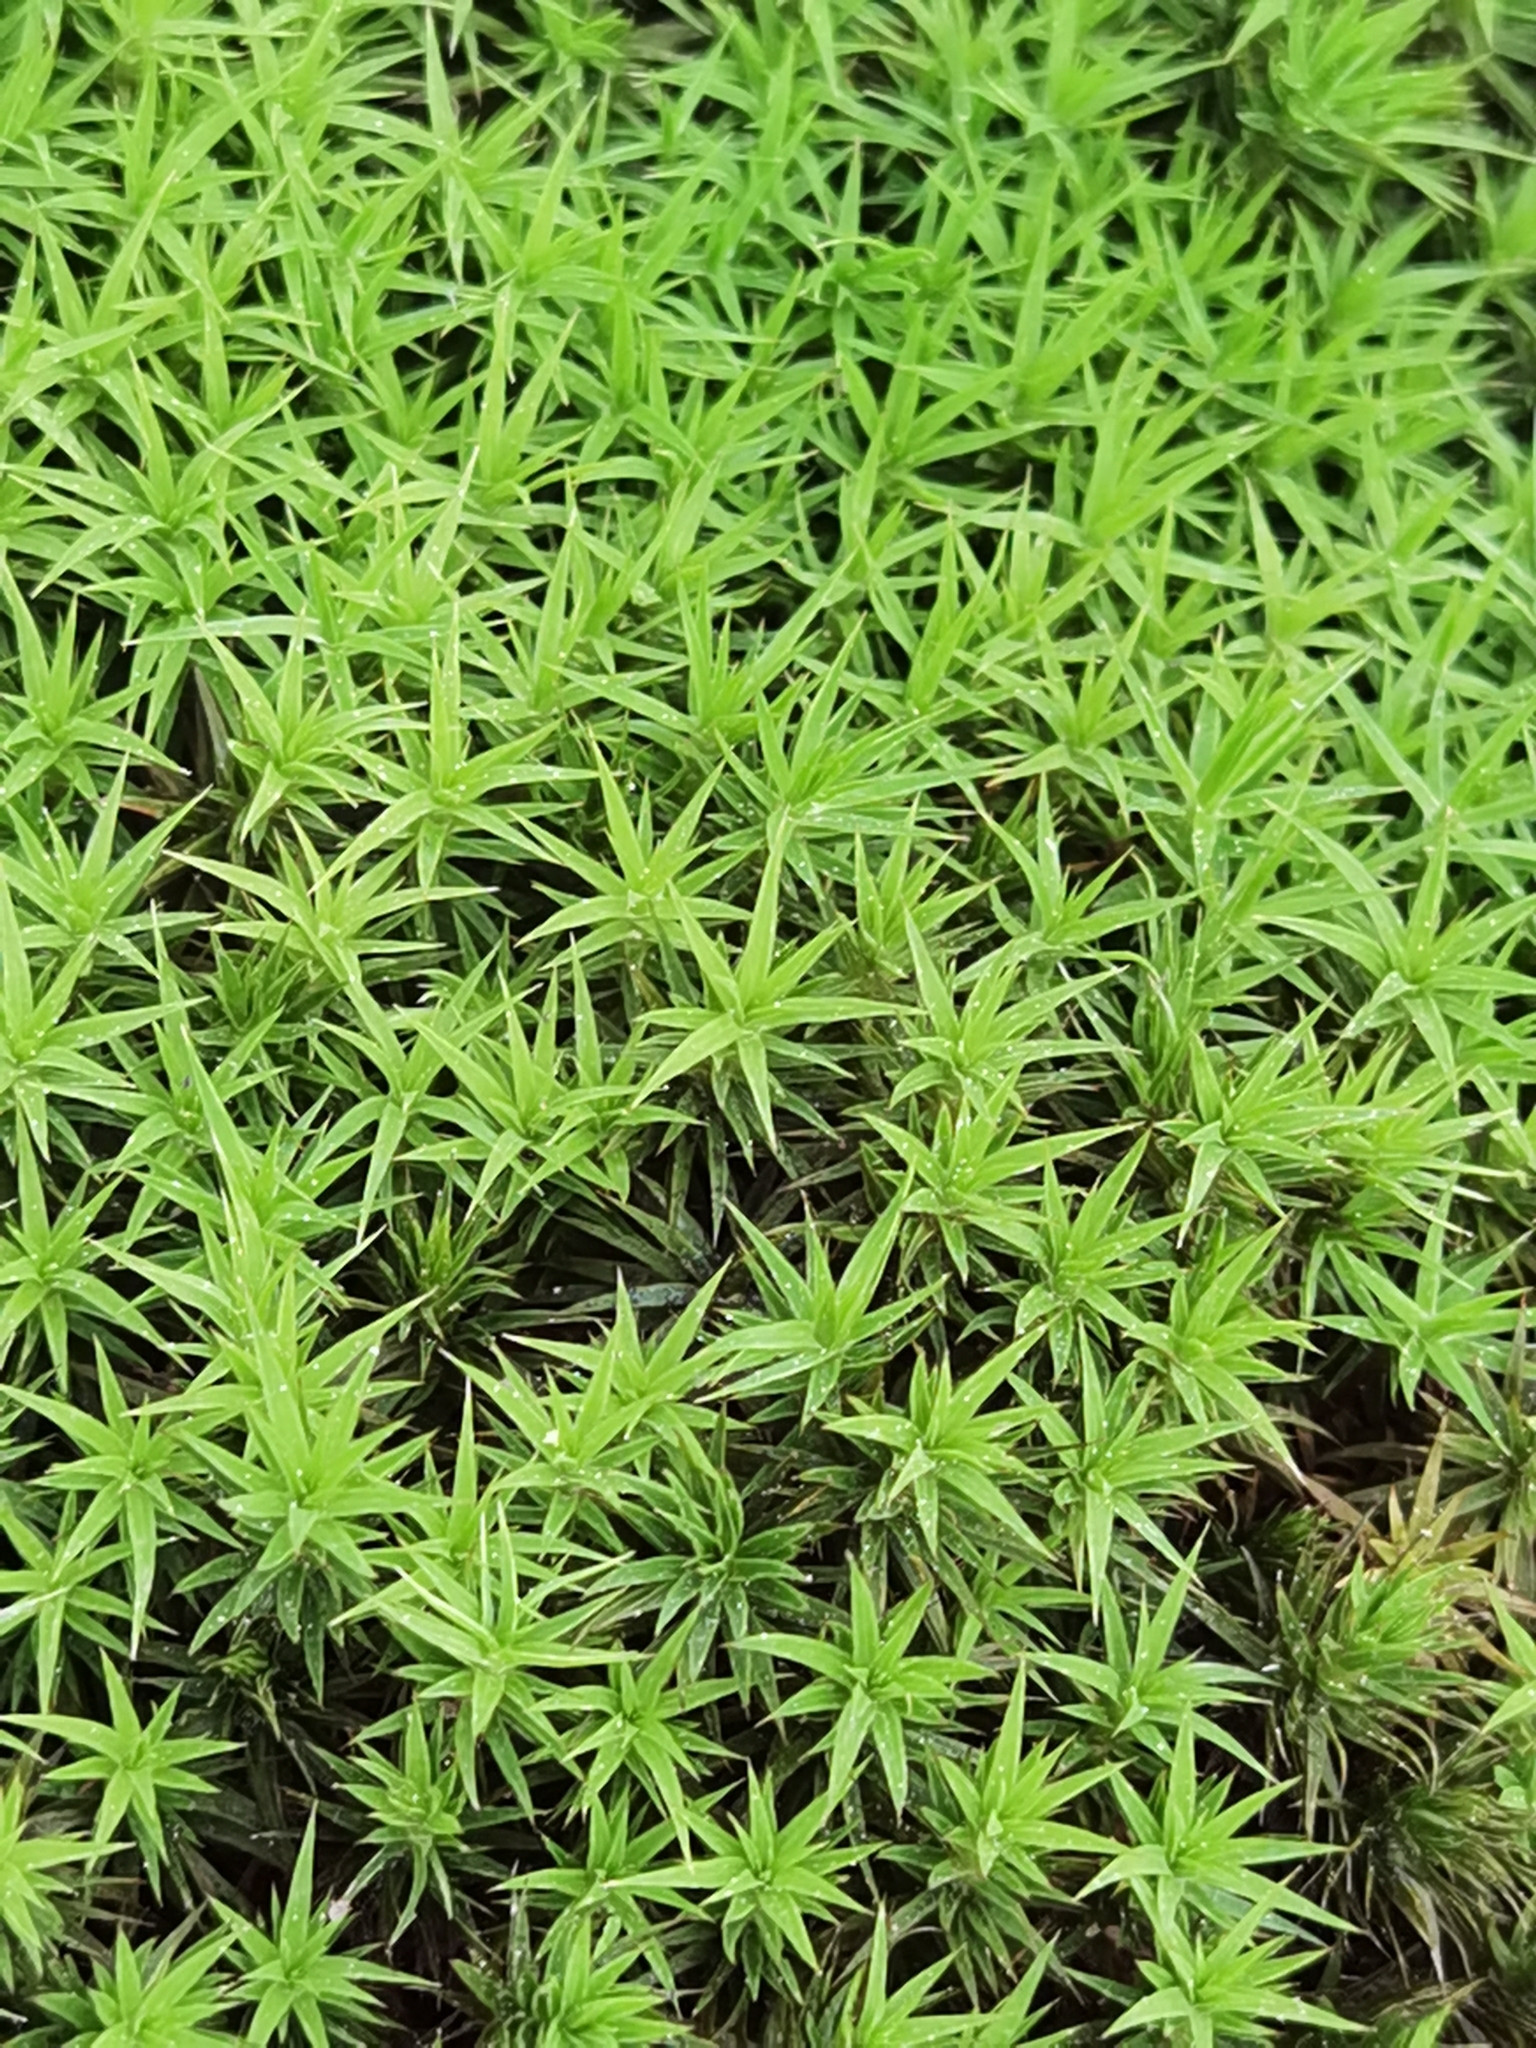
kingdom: Plantae
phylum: Bryophyta
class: Polytrichopsida
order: Polytrichales
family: Polytrichaceae
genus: Polytrichum
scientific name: Polytrichum formosum
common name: Bank haircap moss
